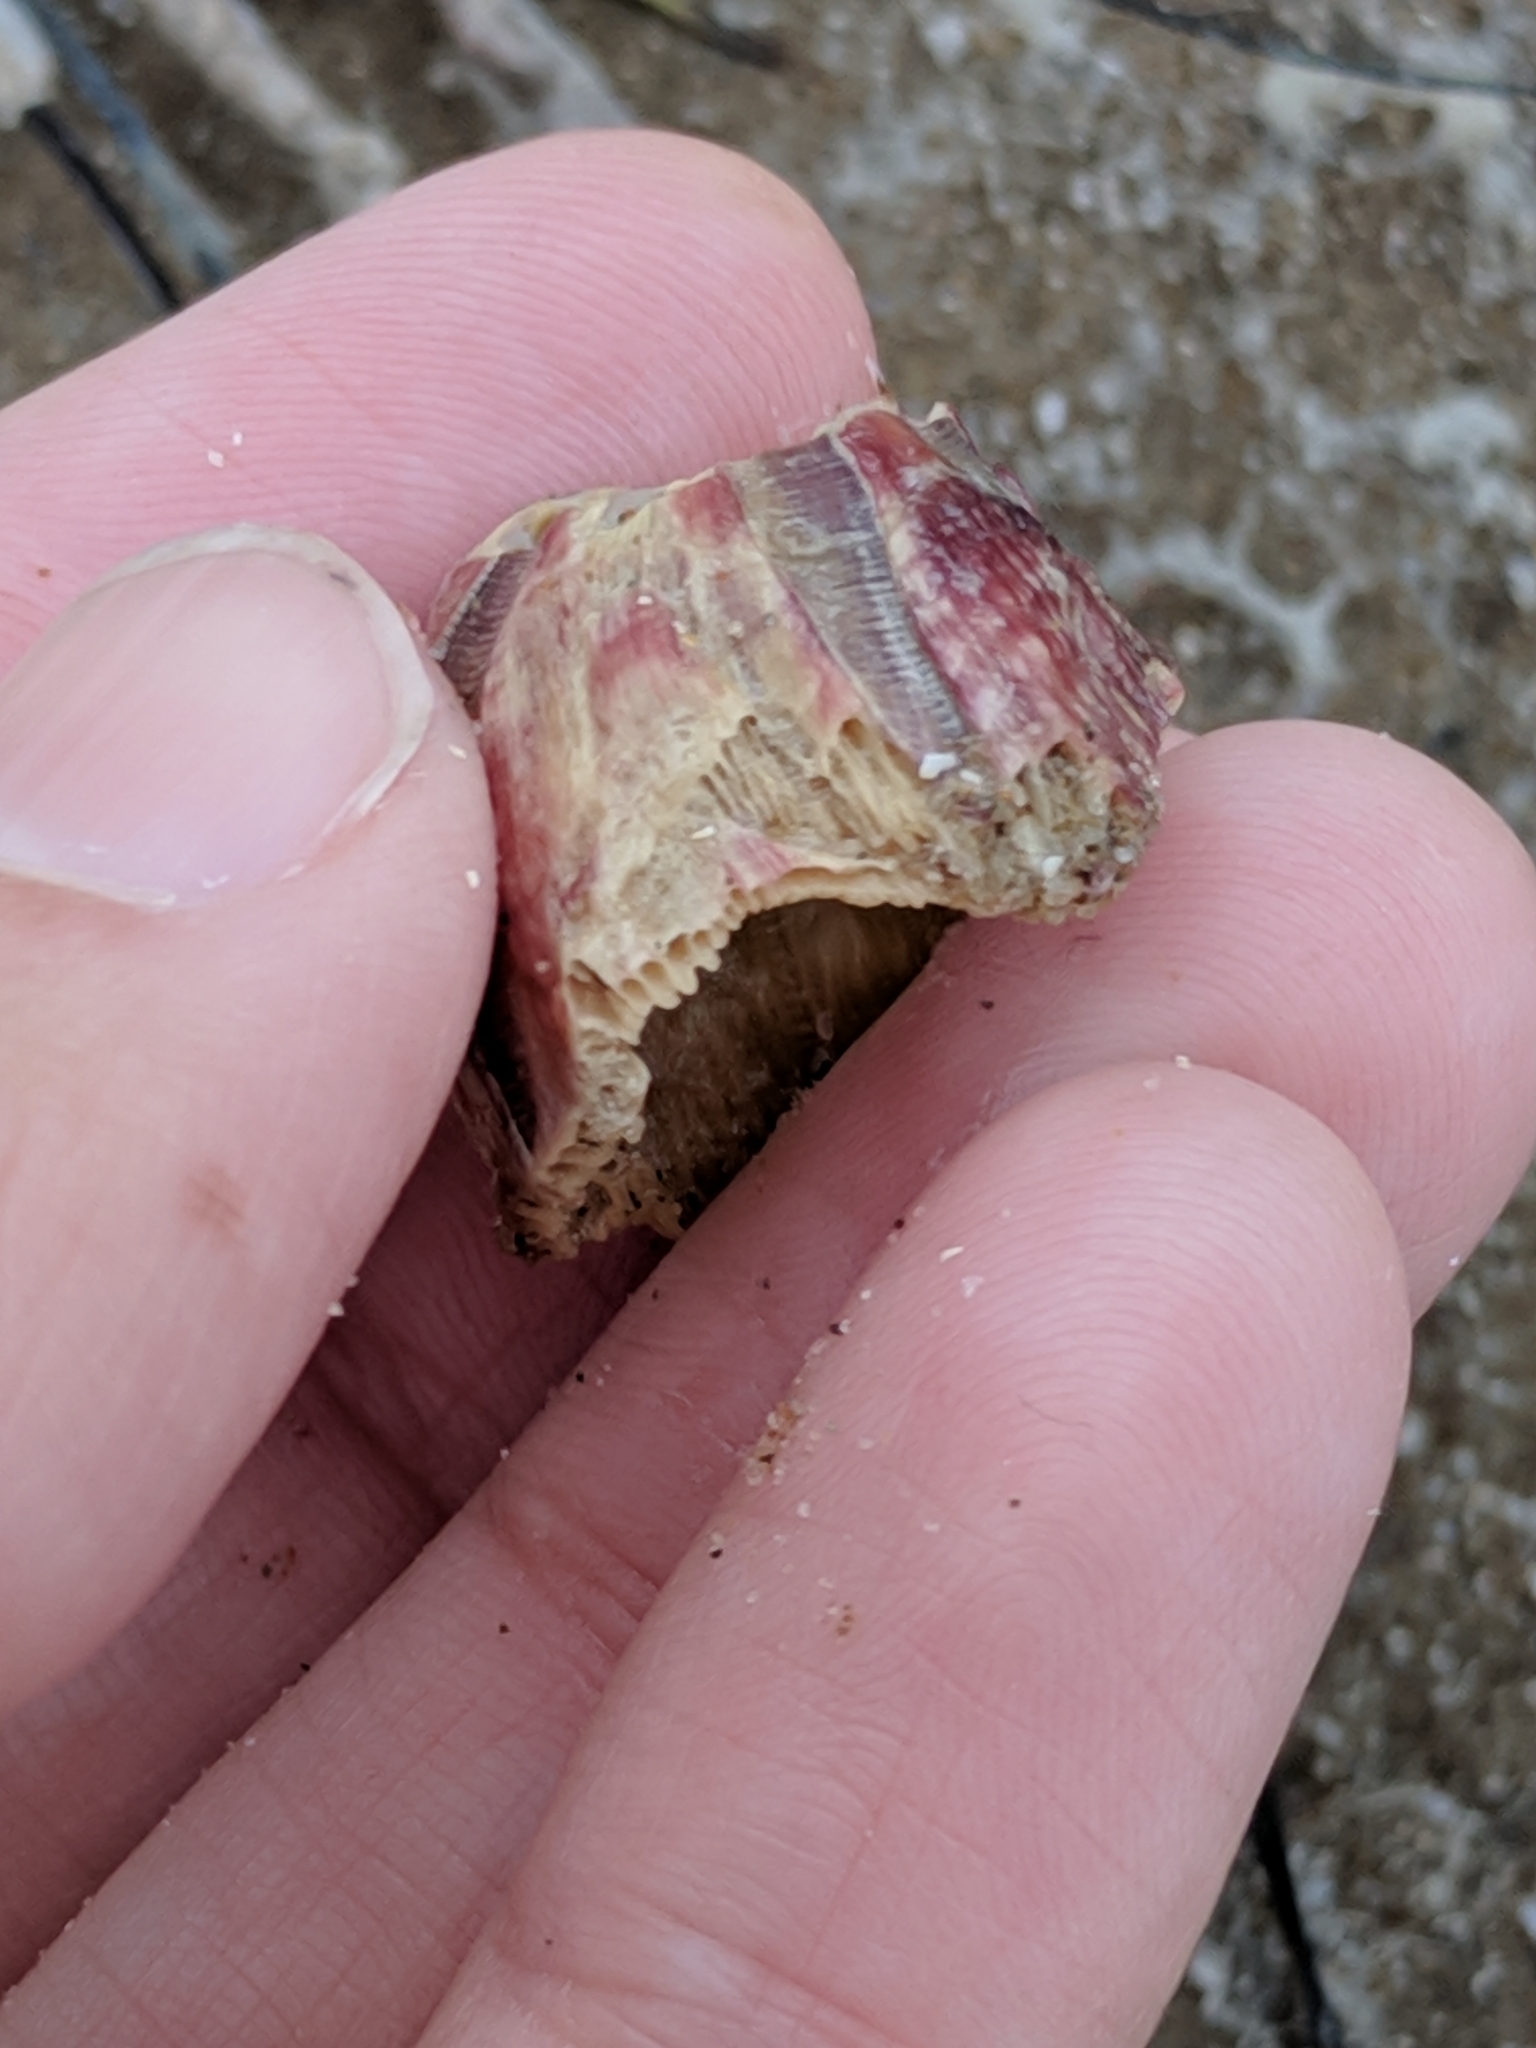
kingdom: Animalia
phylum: Arthropoda
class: Maxillopoda
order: Sessilia
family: Balanidae
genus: Megabalanus
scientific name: Megabalanus tintinnabulum
